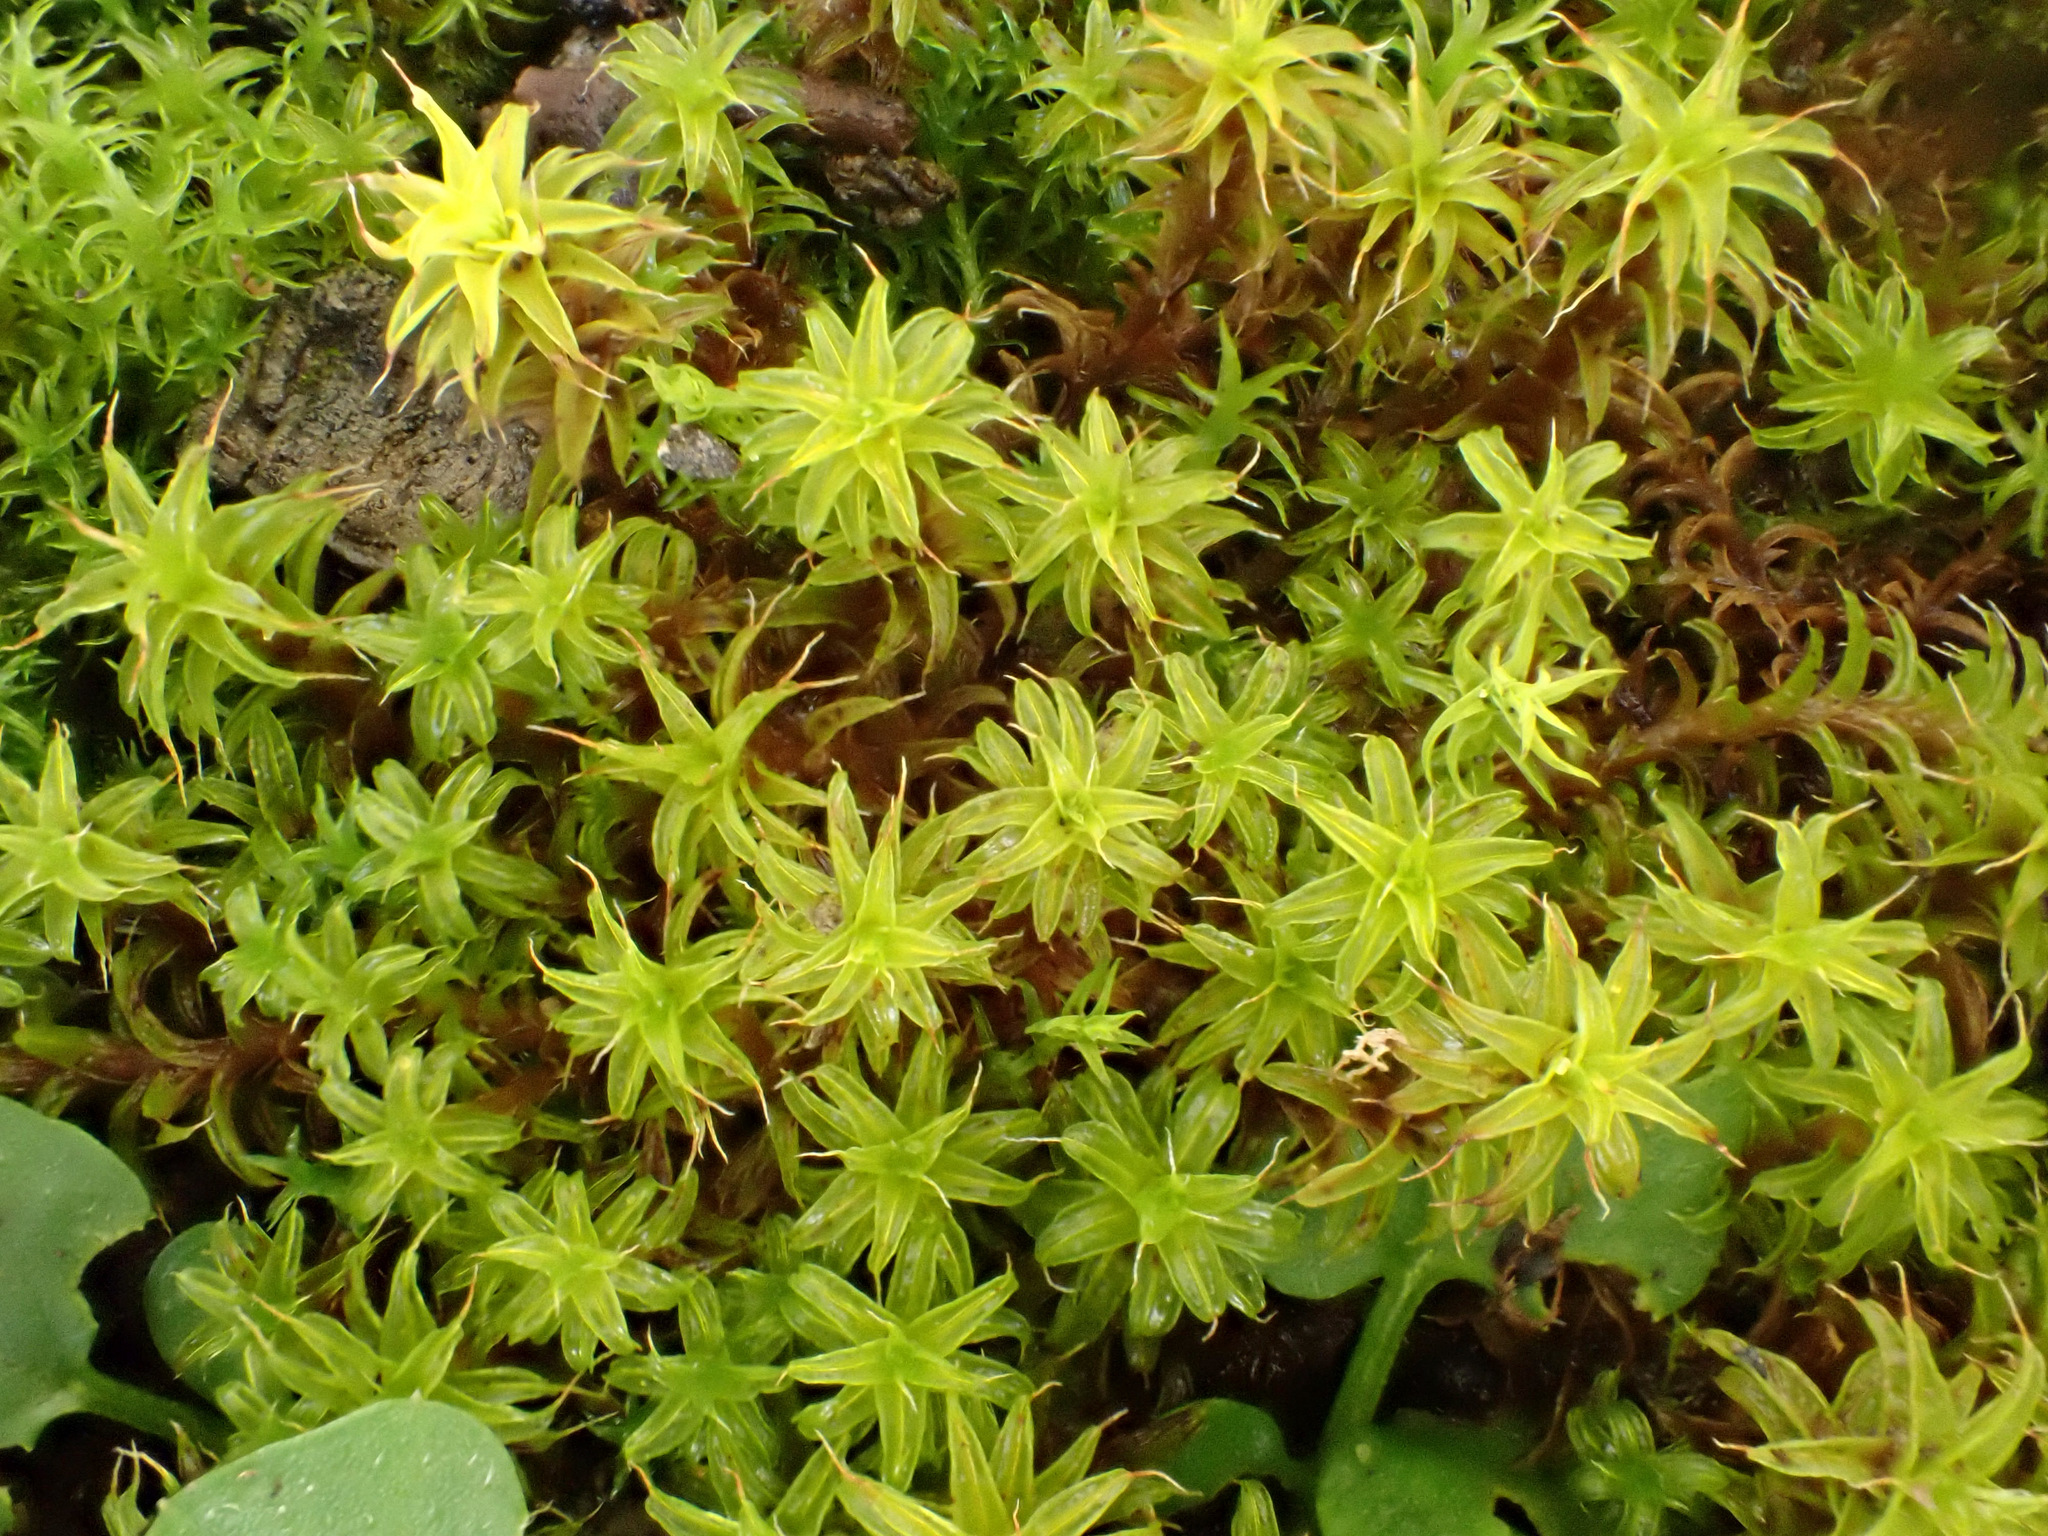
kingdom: Plantae
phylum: Bryophyta
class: Bryopsida
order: Pottiales
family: Pottiaceae
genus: Syntrichia
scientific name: Syntrichia ruralis
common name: Sidewalk screw moss
